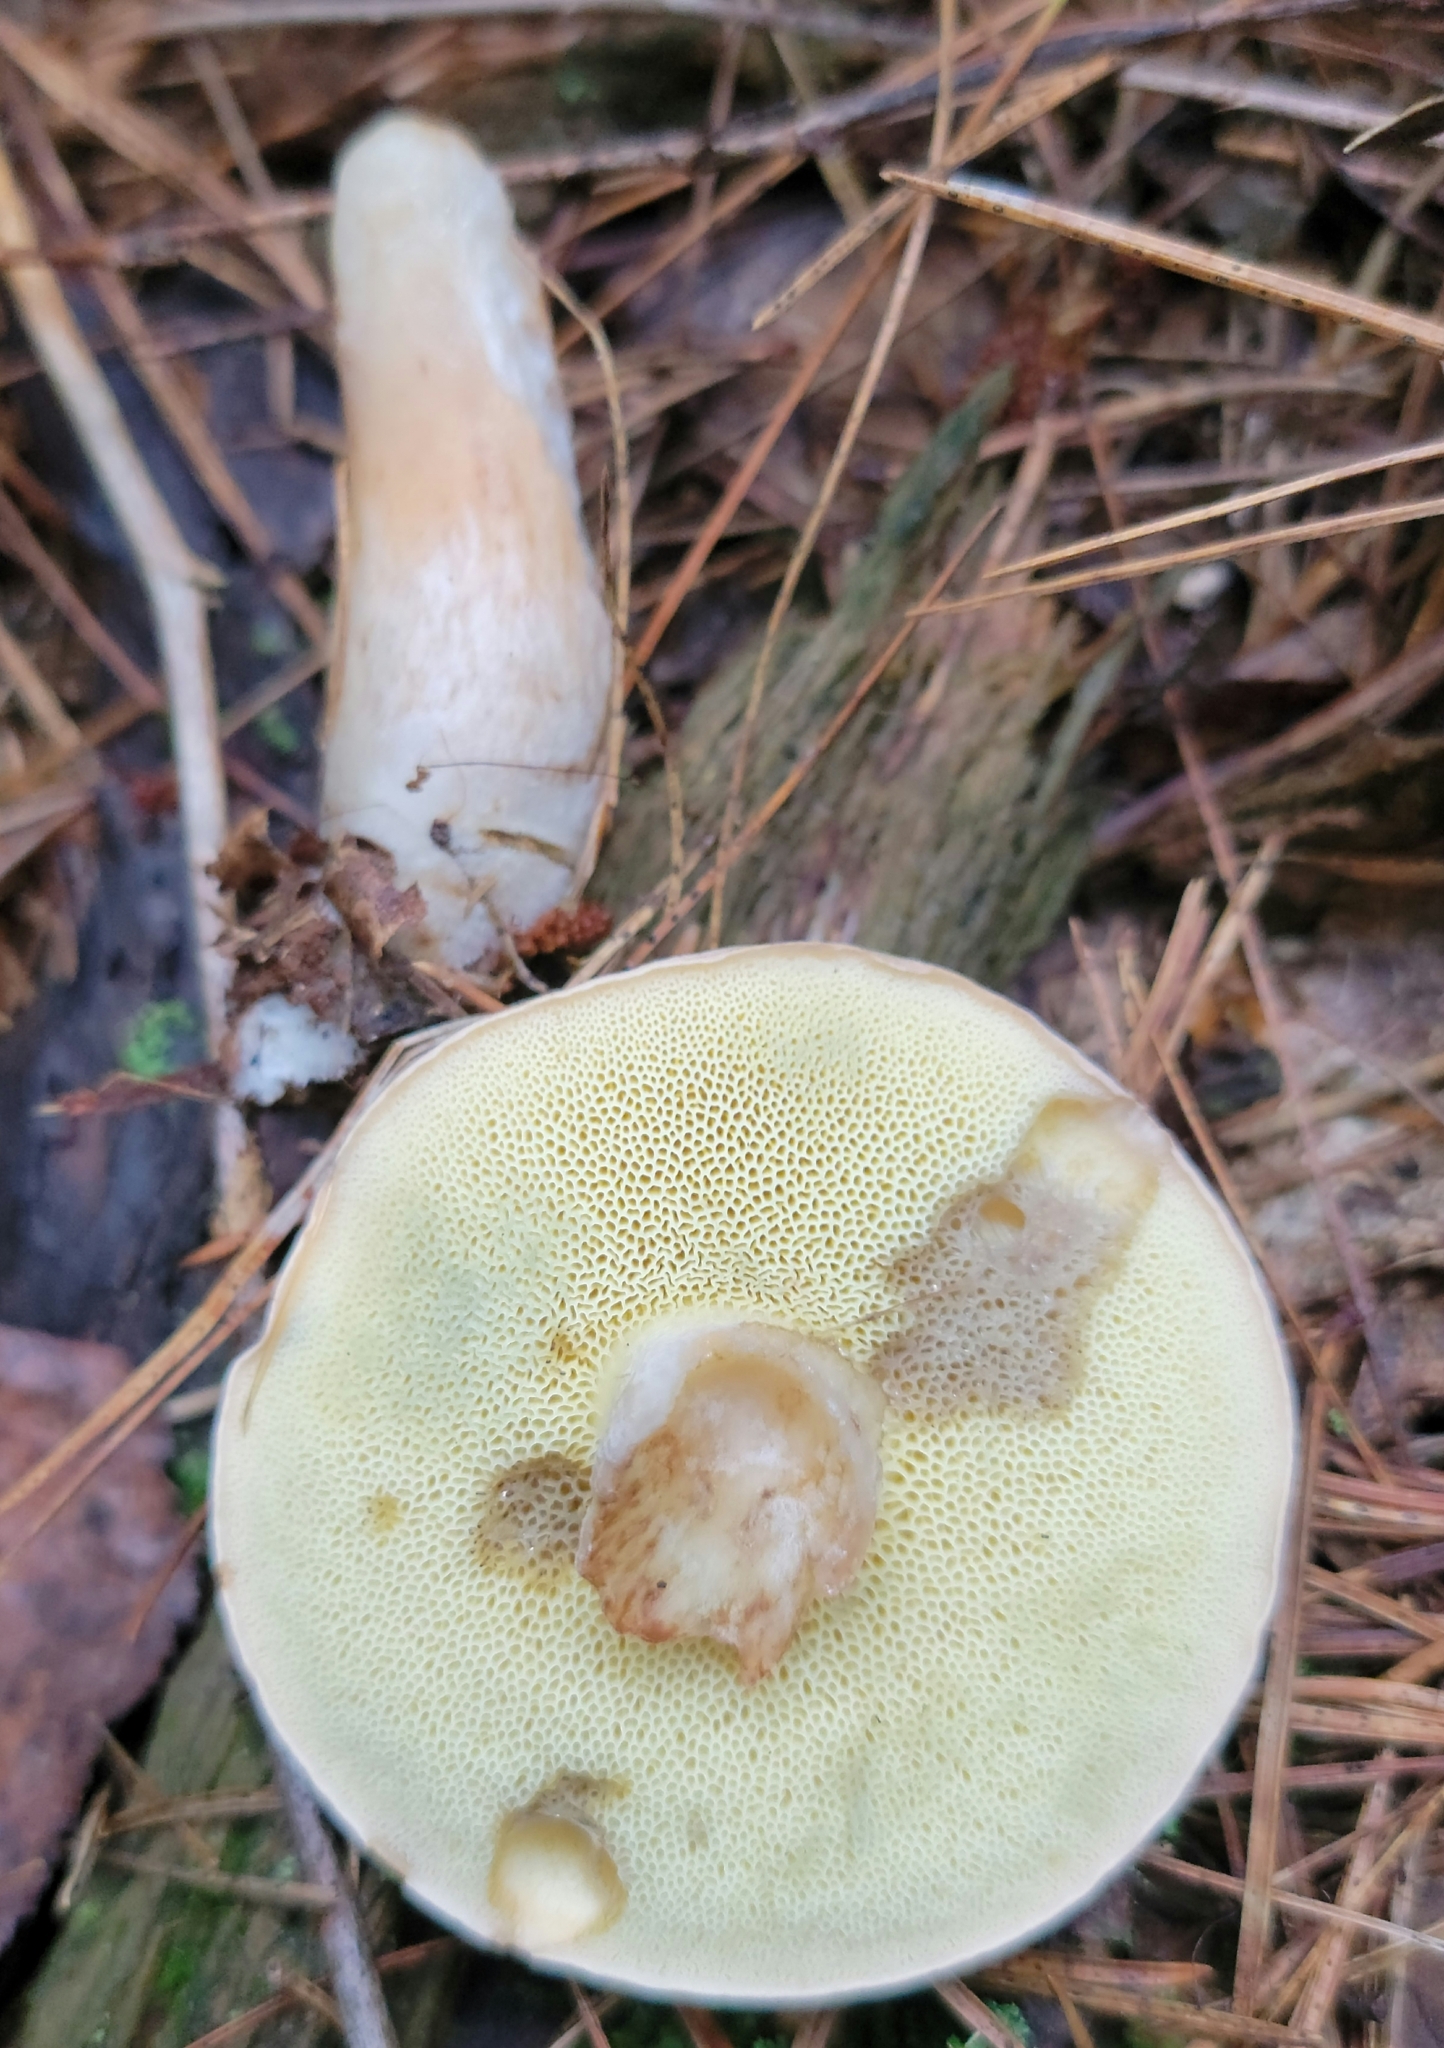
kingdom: Fungi
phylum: Basidiomycota
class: Agaricomycetes
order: Boletales
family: Boletaceae
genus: Imleria
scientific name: Imleria pallida
